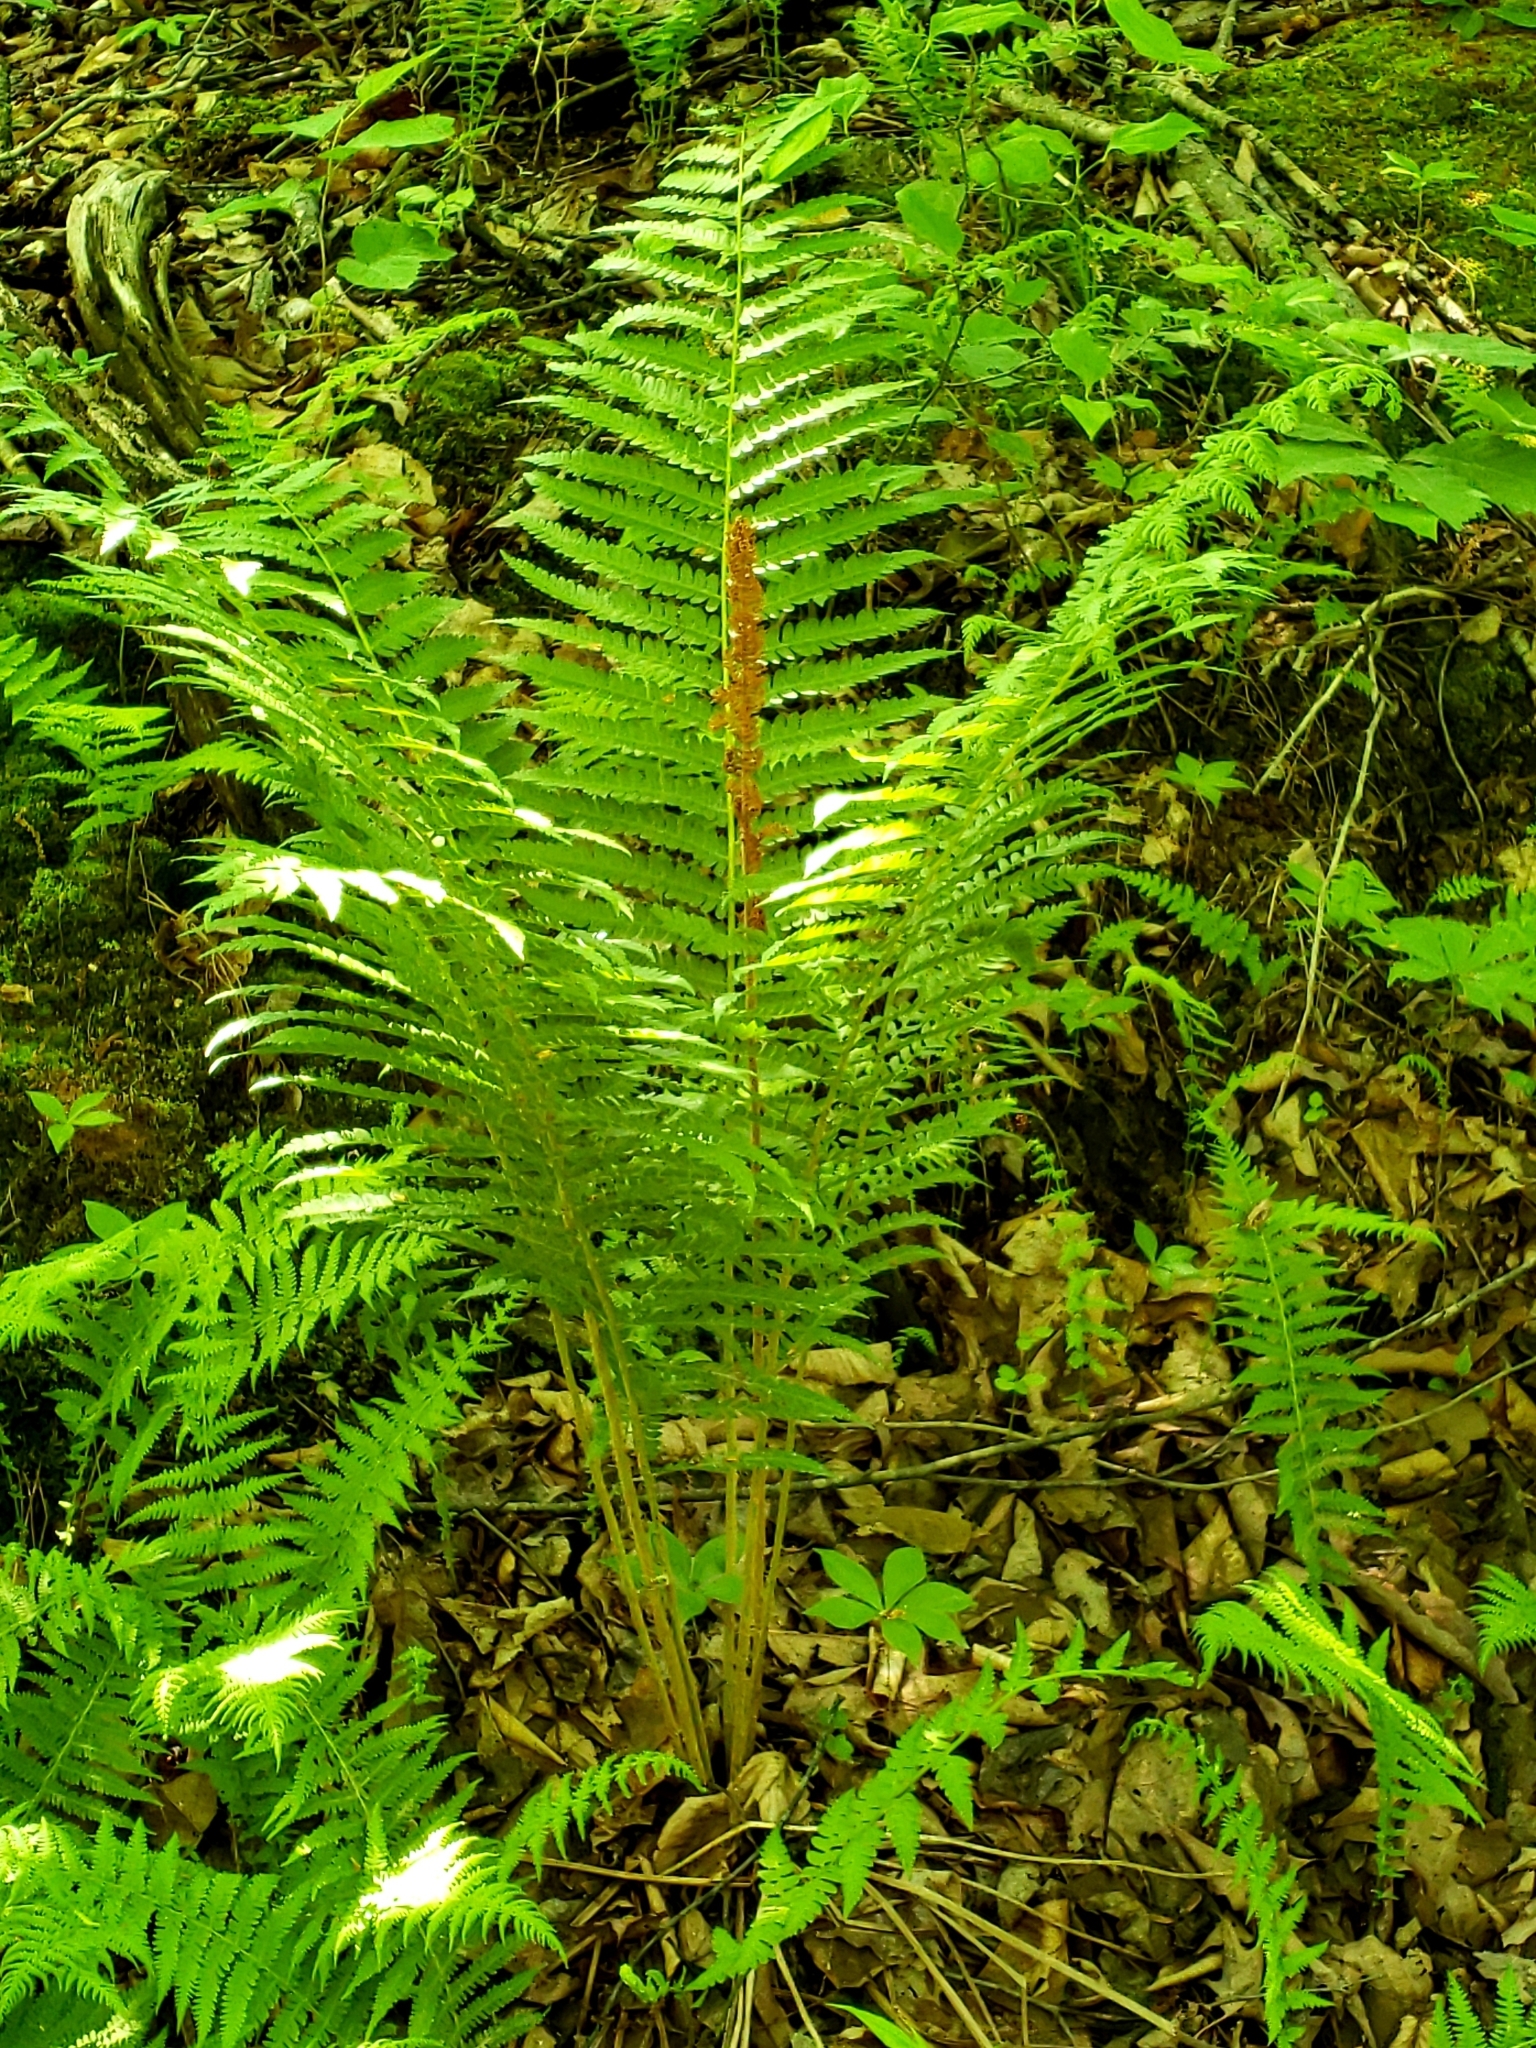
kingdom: Plantae
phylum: Tracheophyta
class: Polypodiopsida
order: Osmundales
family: Osmundaceae
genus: Osmundastrum
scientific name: Osmundastrum cinnamomeum
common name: Cinnamon fern
